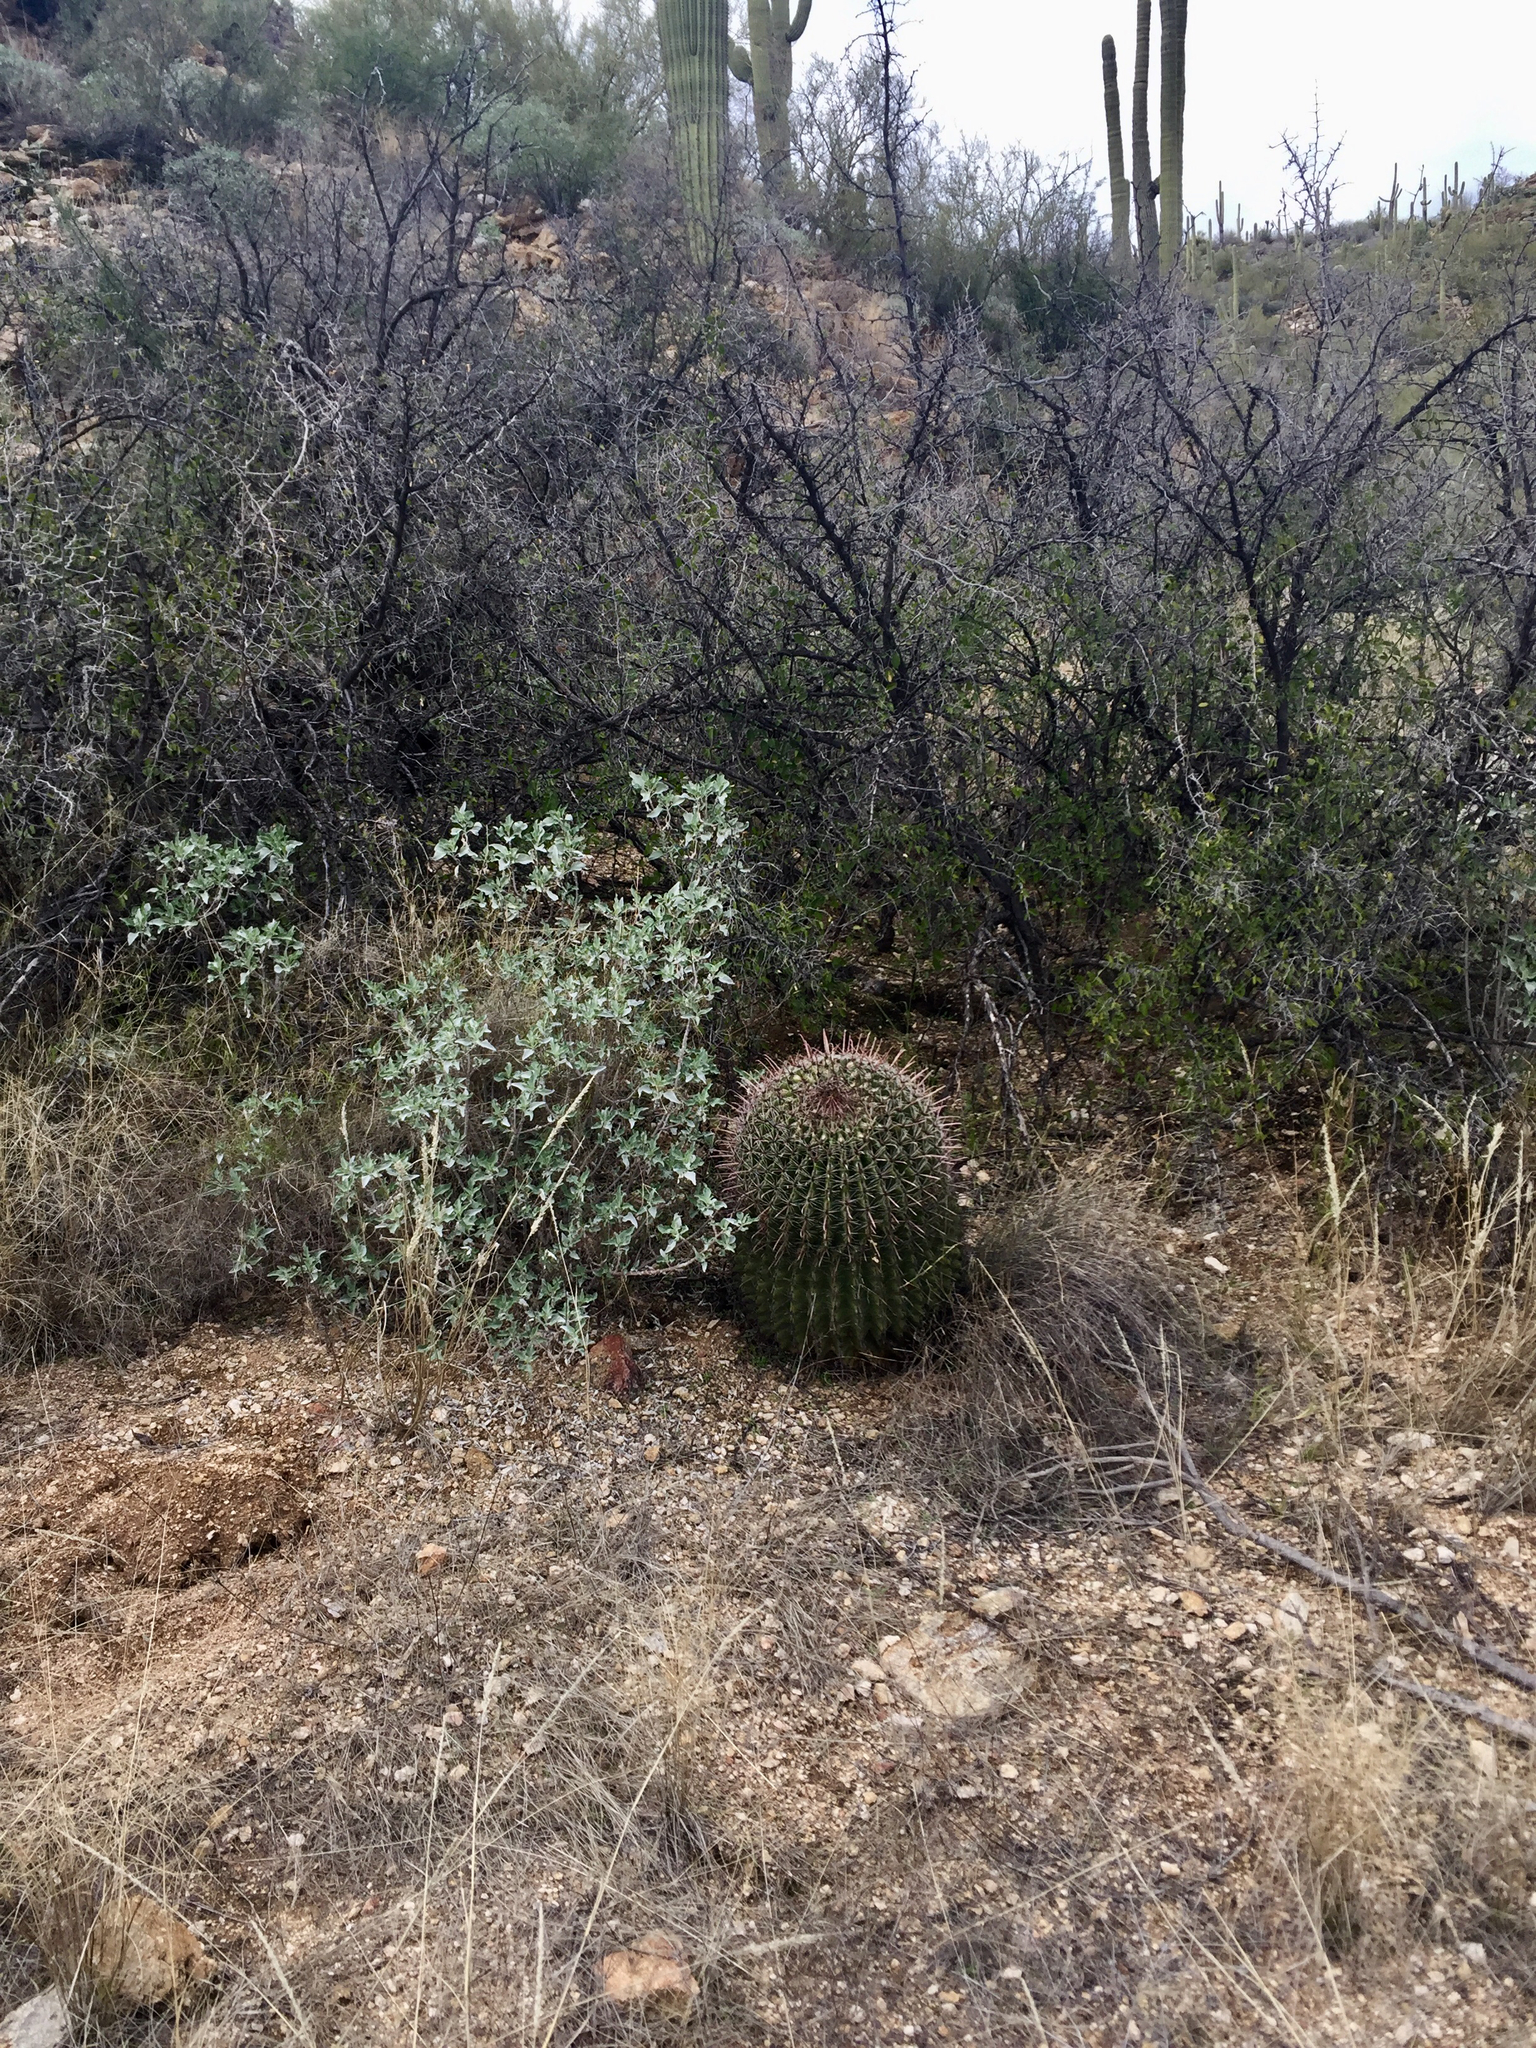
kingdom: Plantae
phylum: Tracheophyta
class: Magnoliopsida
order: Caryophyllales
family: Cactaceae
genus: Ferocactus
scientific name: Ferocactus wislizeni
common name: Candy barrel cactus
